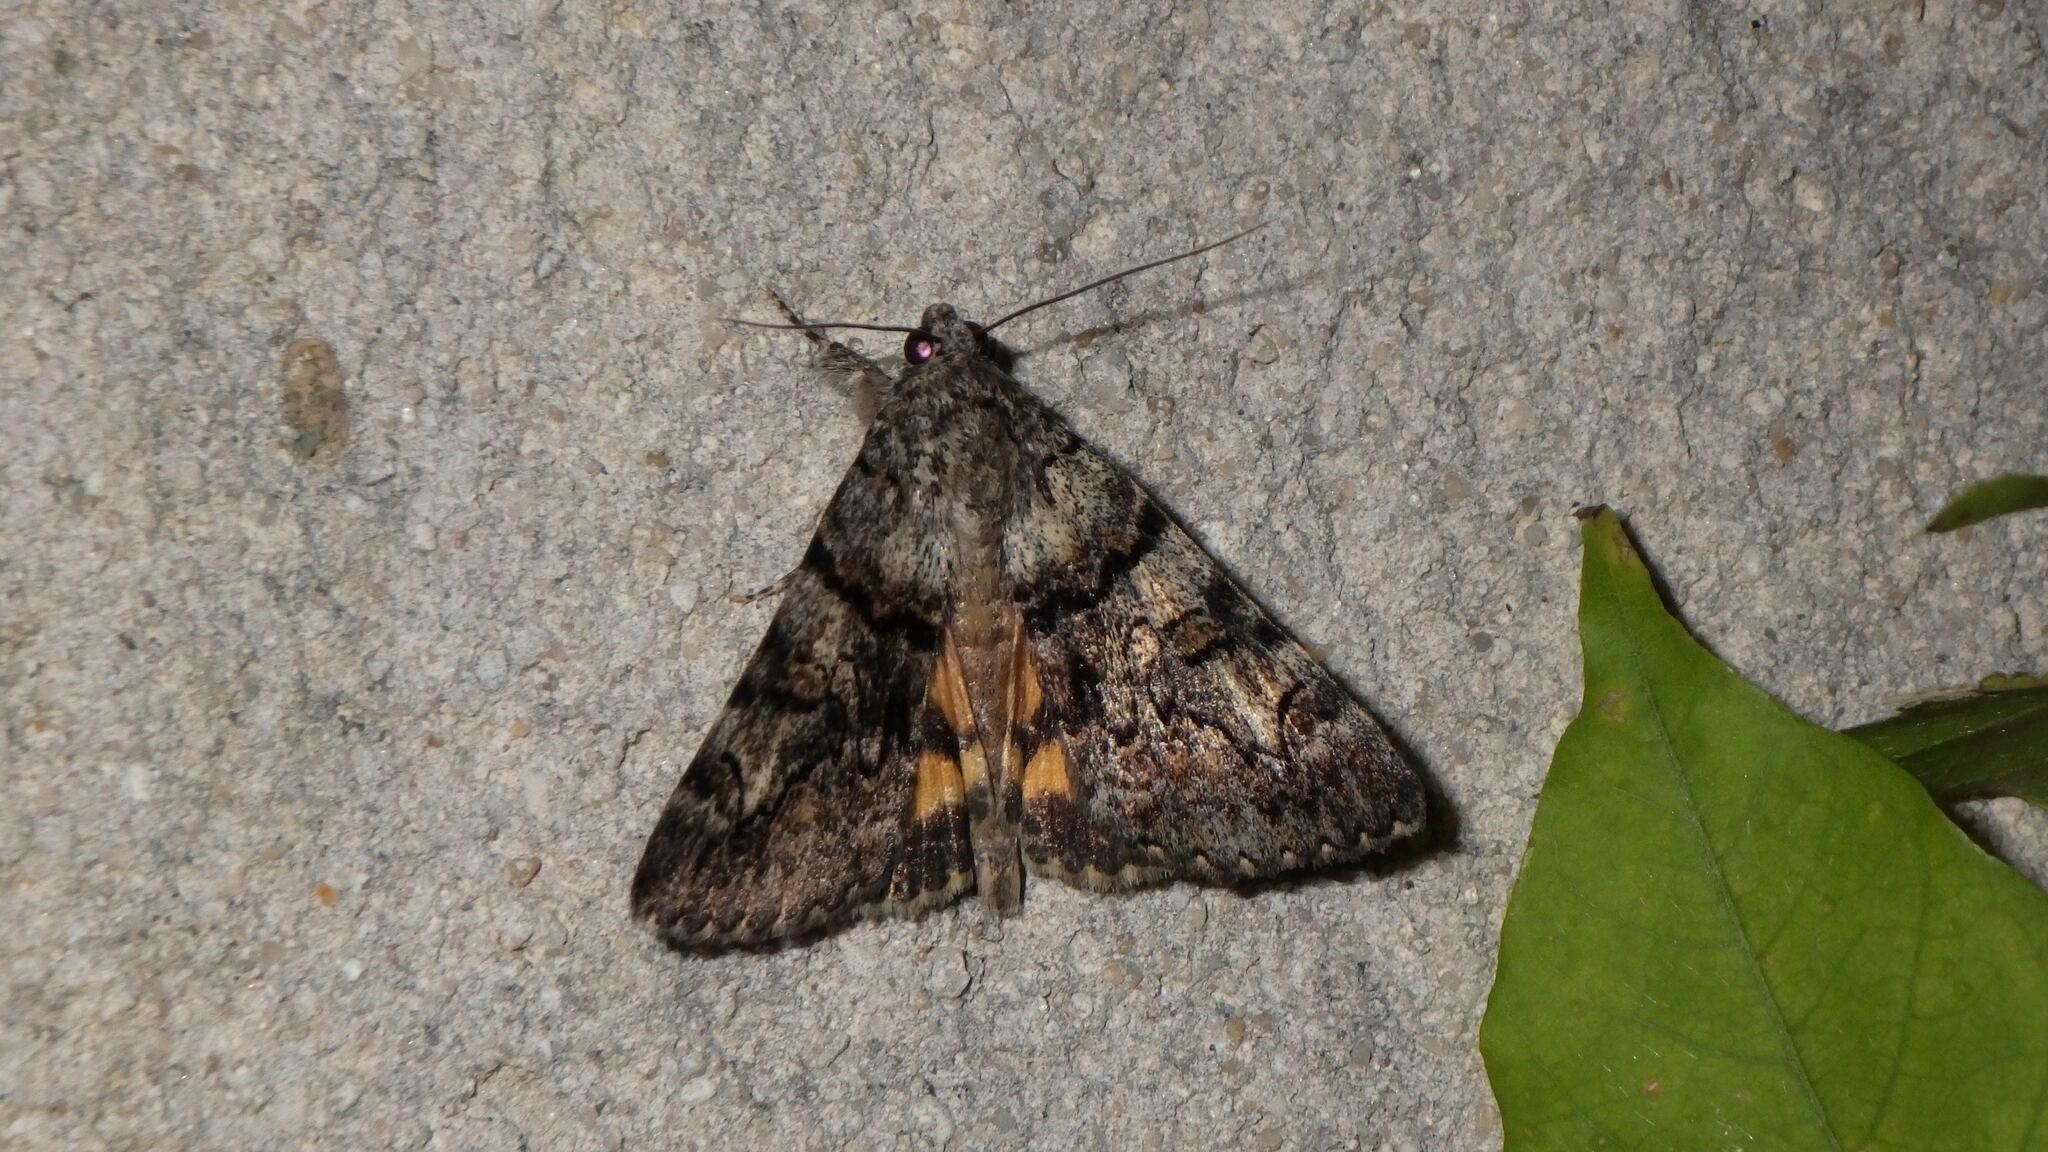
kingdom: Animalia
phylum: Arthropoda
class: Insecta
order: Lepidoptera
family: Erebidae
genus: Catocala
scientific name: Catocala nymphagoga
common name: Oak yellow underwing
